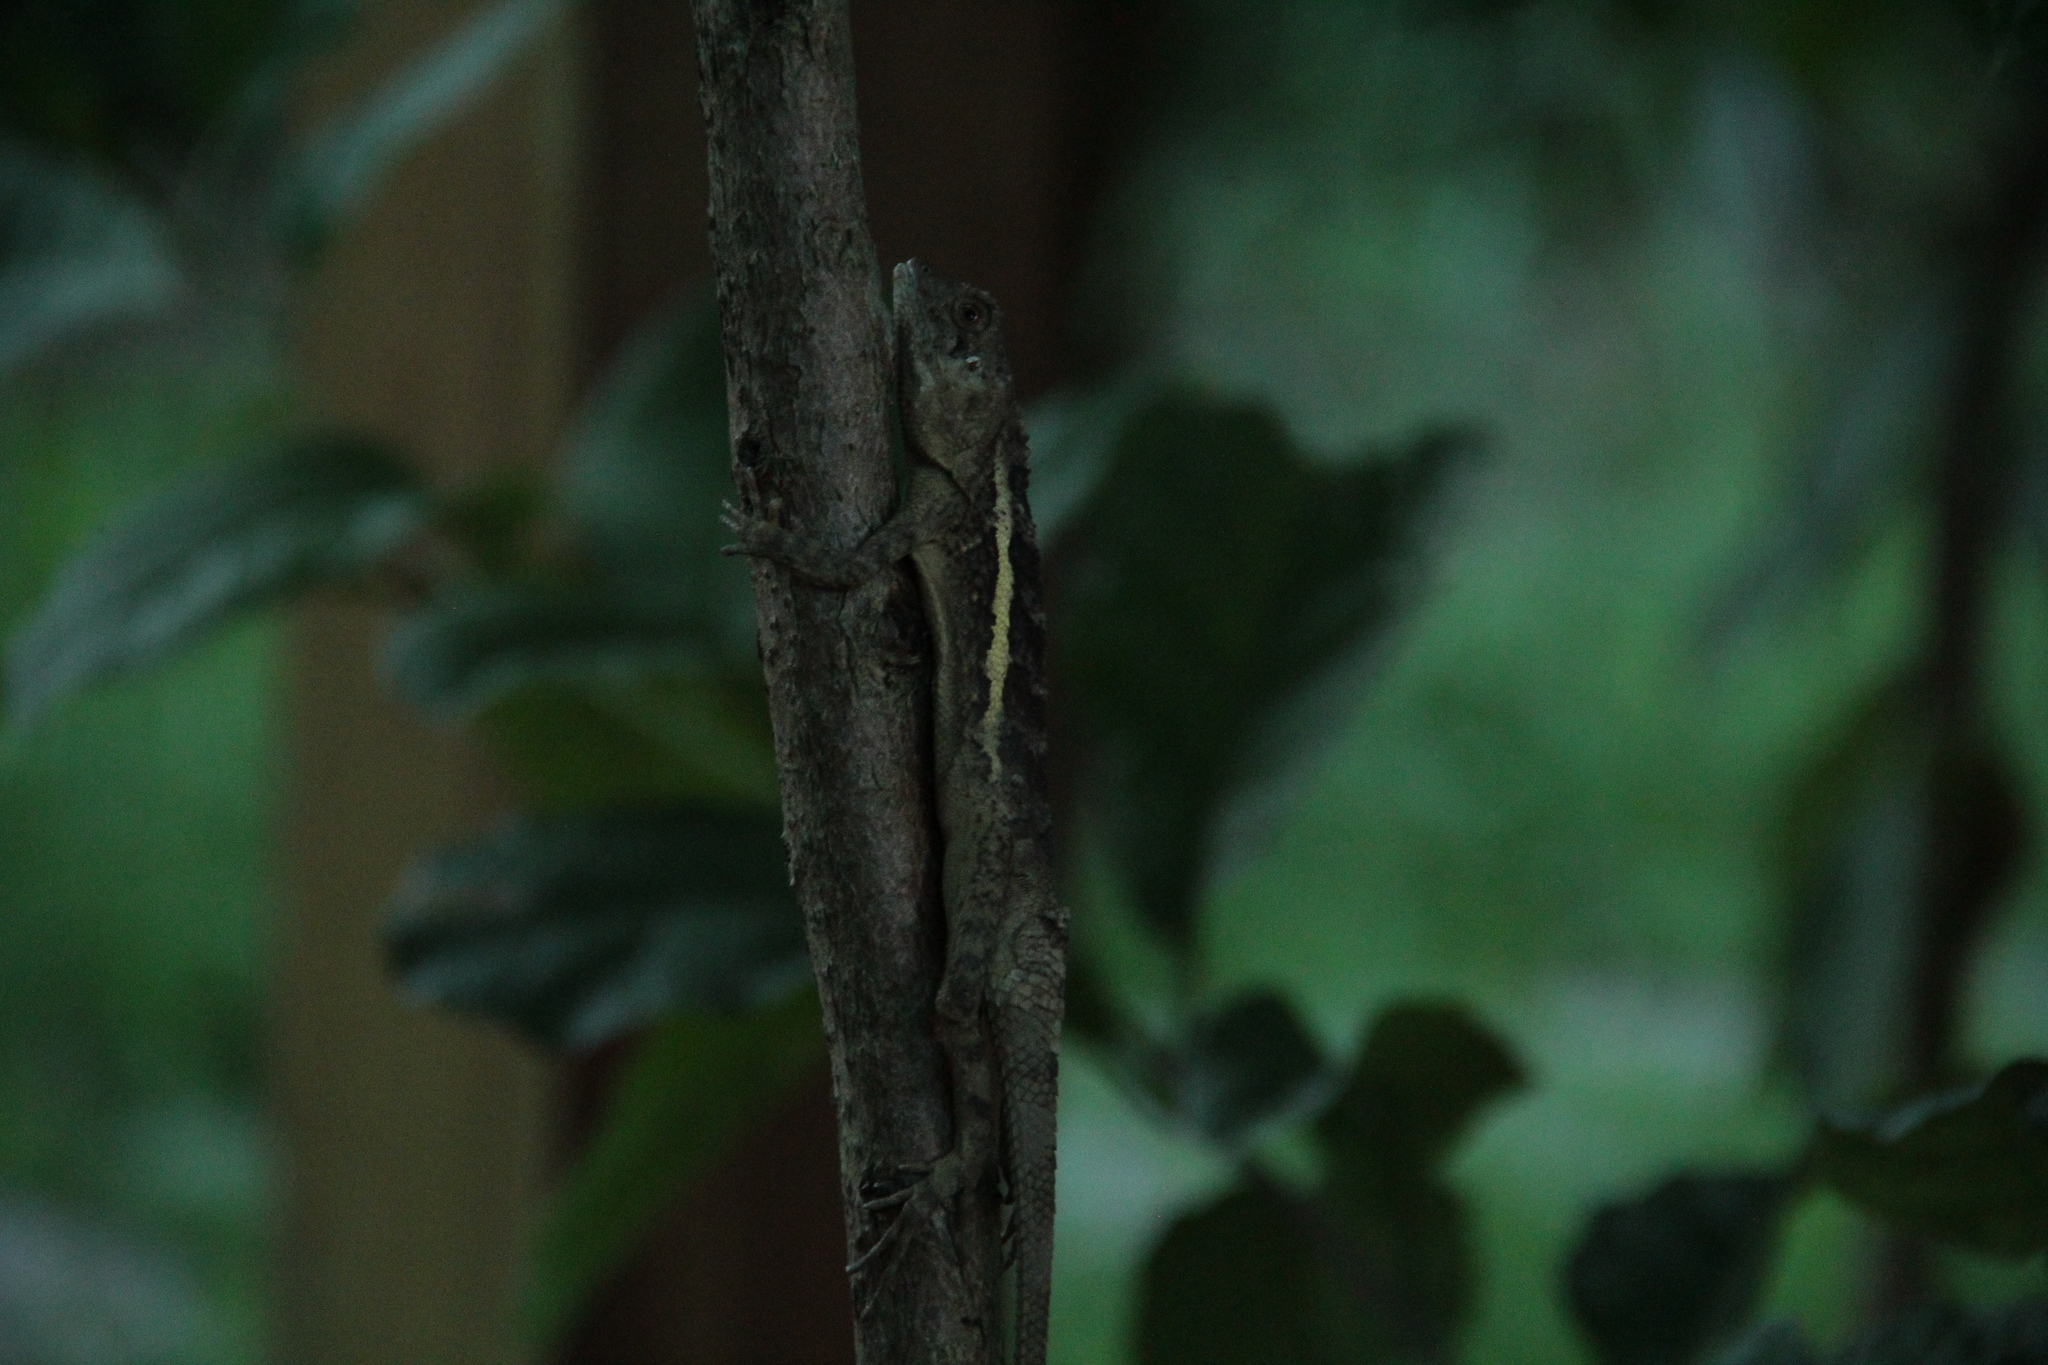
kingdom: Animalia
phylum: Chordata
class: Squamata
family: Agamidae
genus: Diploderma
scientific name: Diploderma swinhonis
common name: Taiwan japalure
